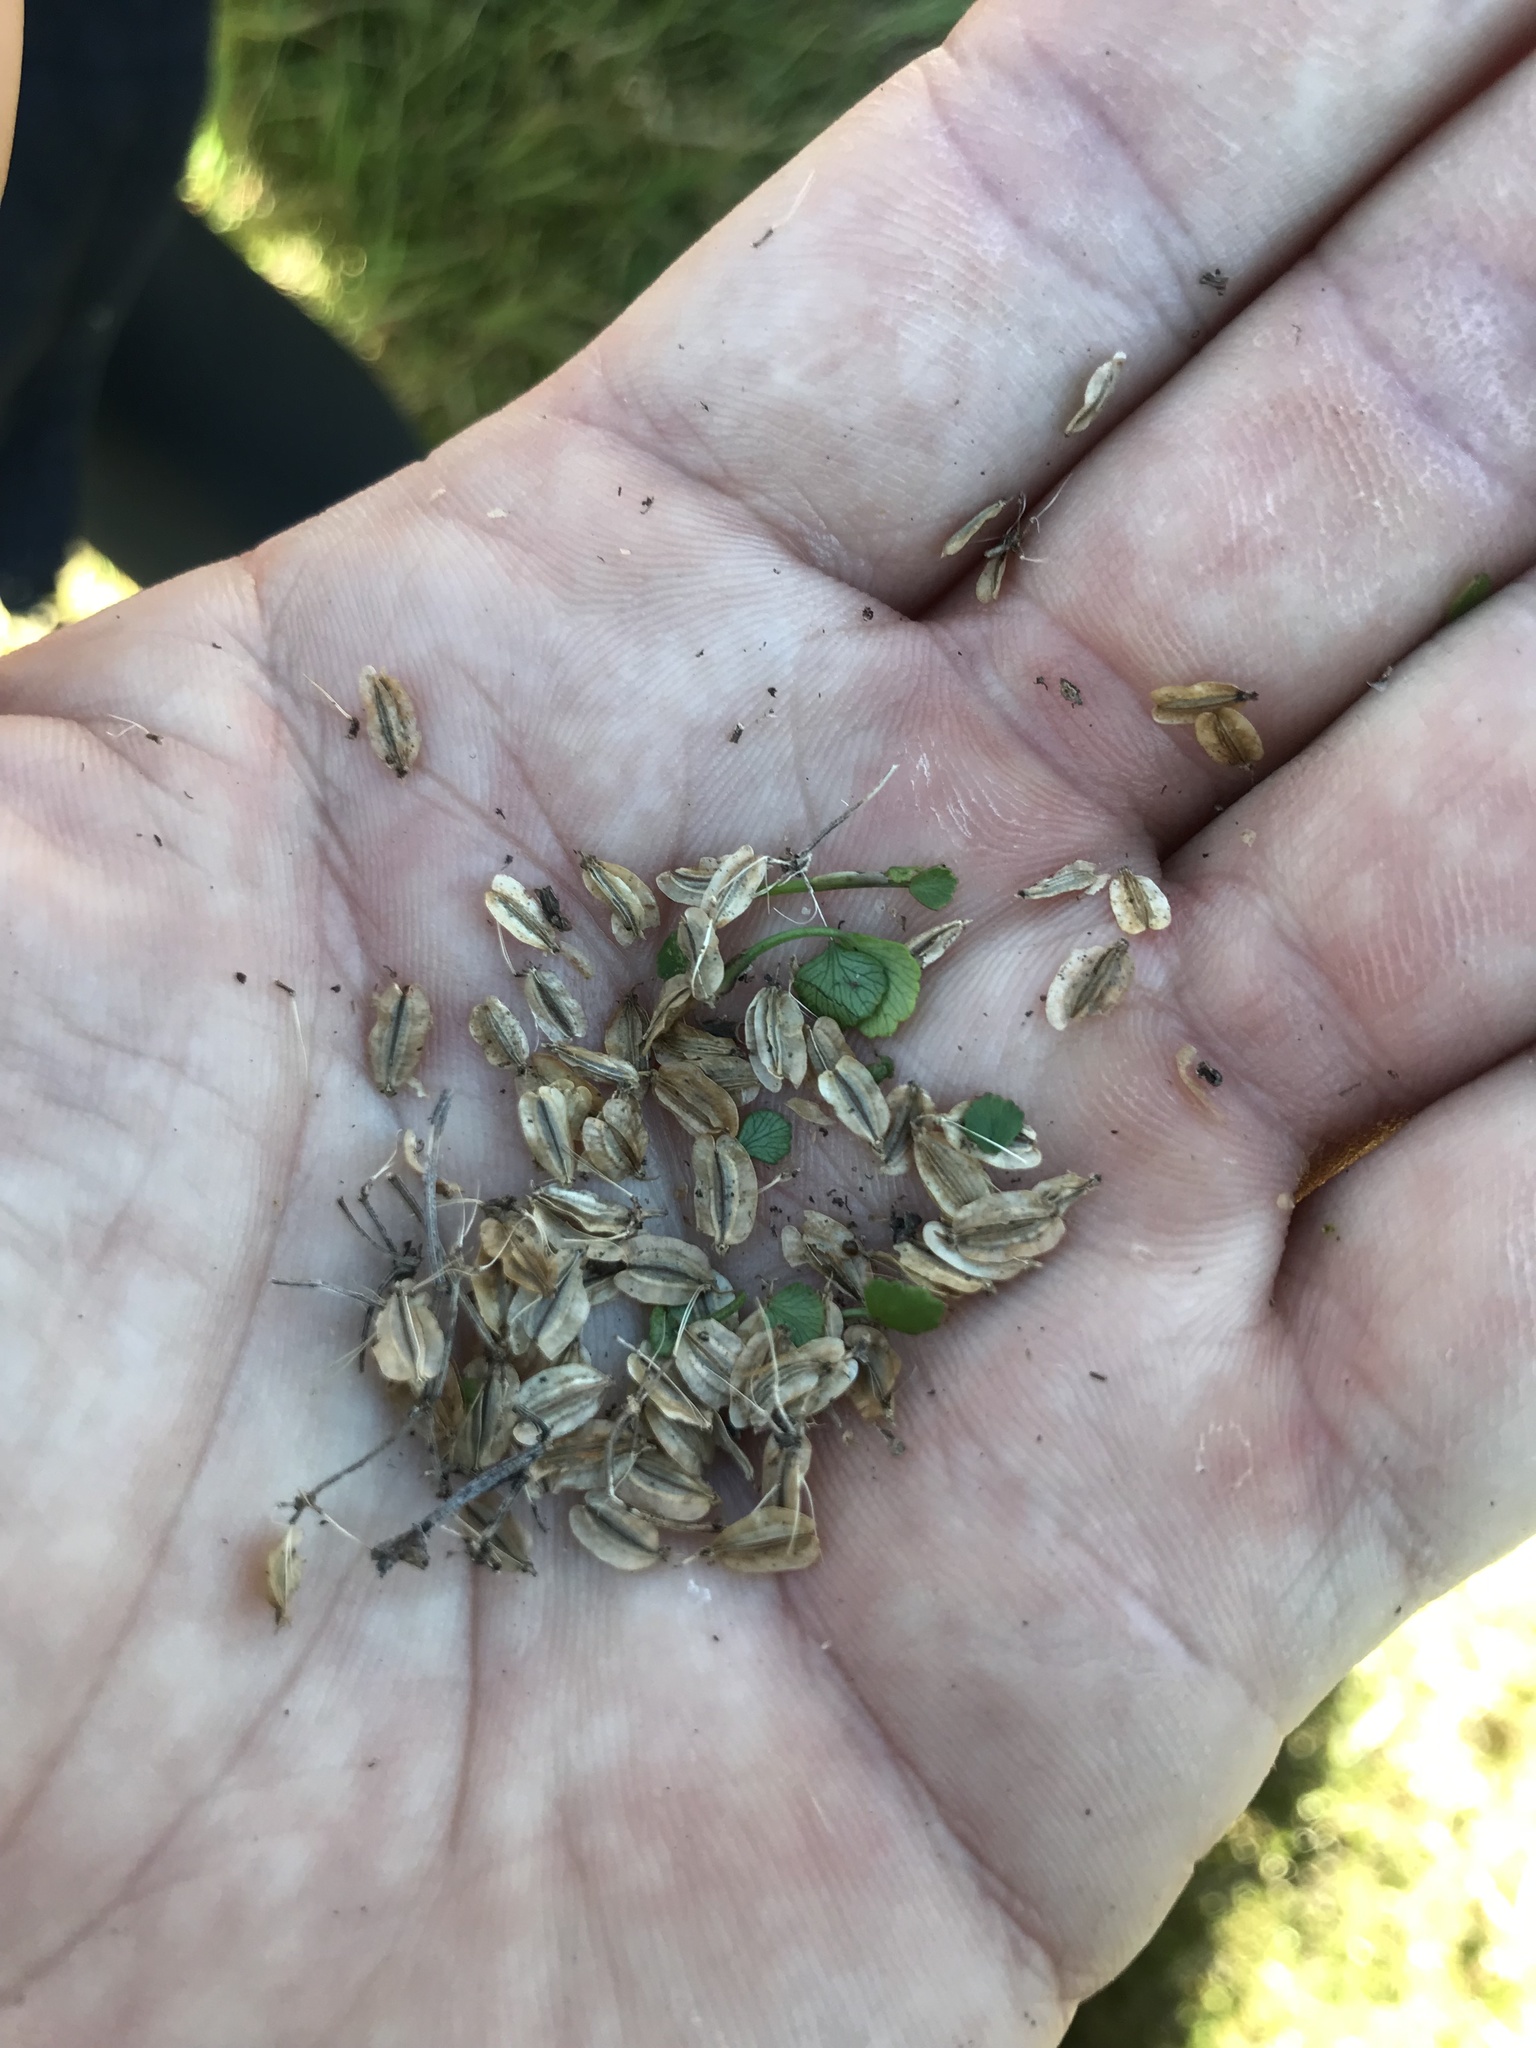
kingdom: Plantae
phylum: Tracheophyta
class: Magnoliopsida
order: Apiales
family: Apiaceae
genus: Scandia
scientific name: Scandia geniculata
